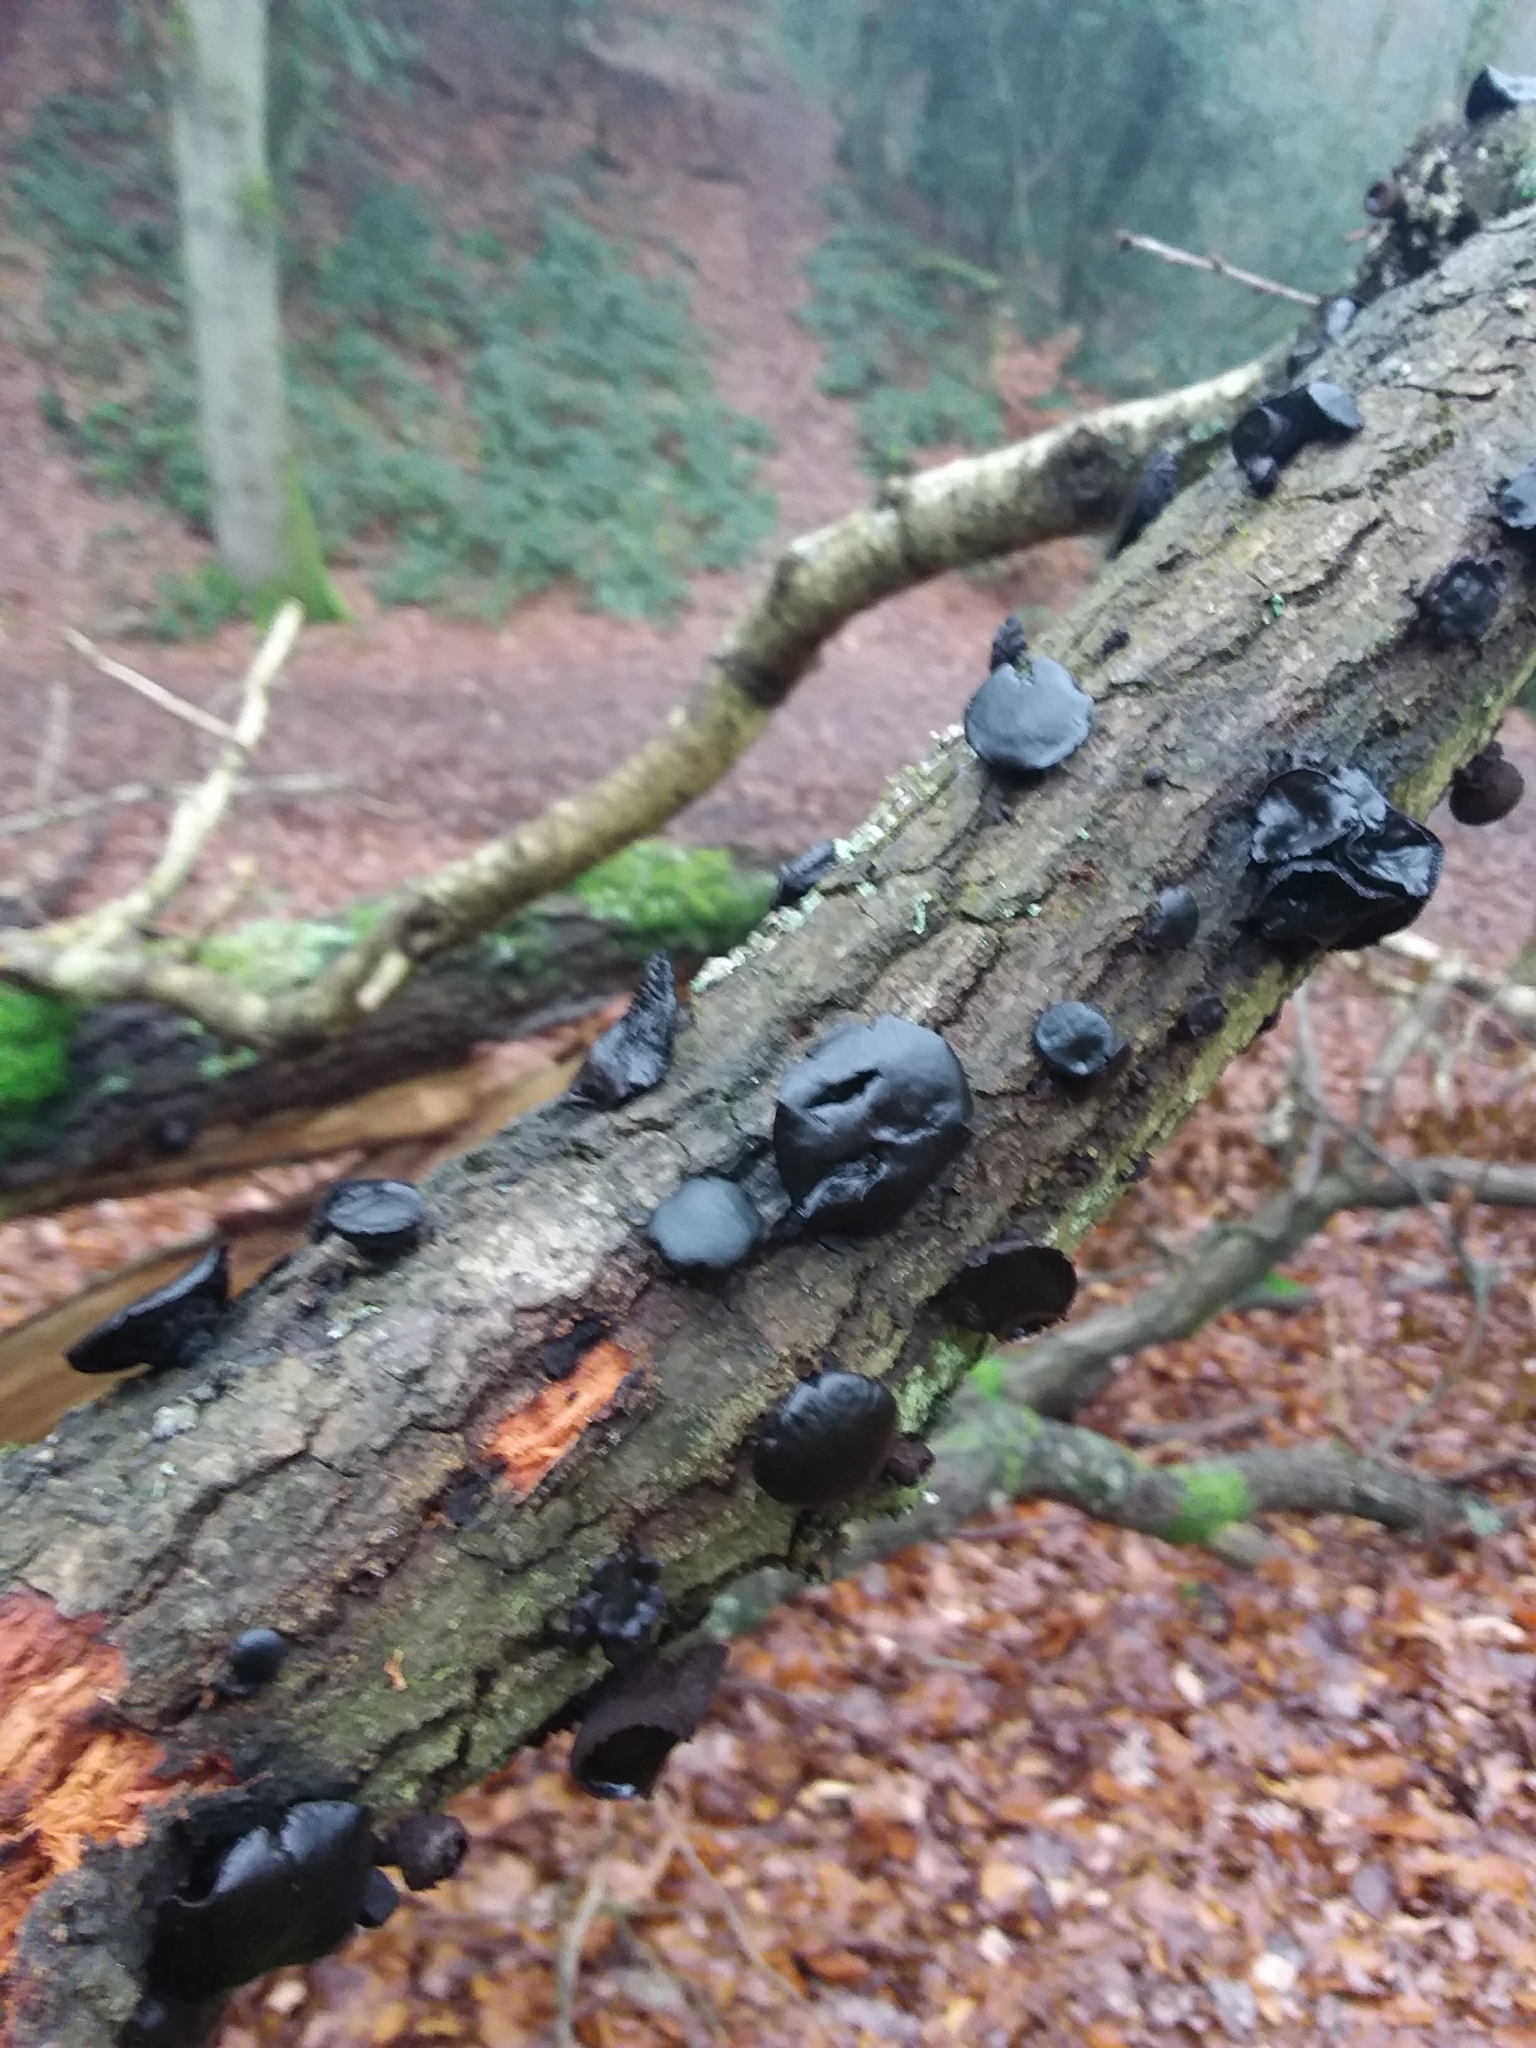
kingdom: Fungi
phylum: Ascomycota
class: Leotiomycetes
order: Phacidiales
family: Phacidiaceae
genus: Bulgaria
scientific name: Bulgaria inquinans
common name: Black bulgar
